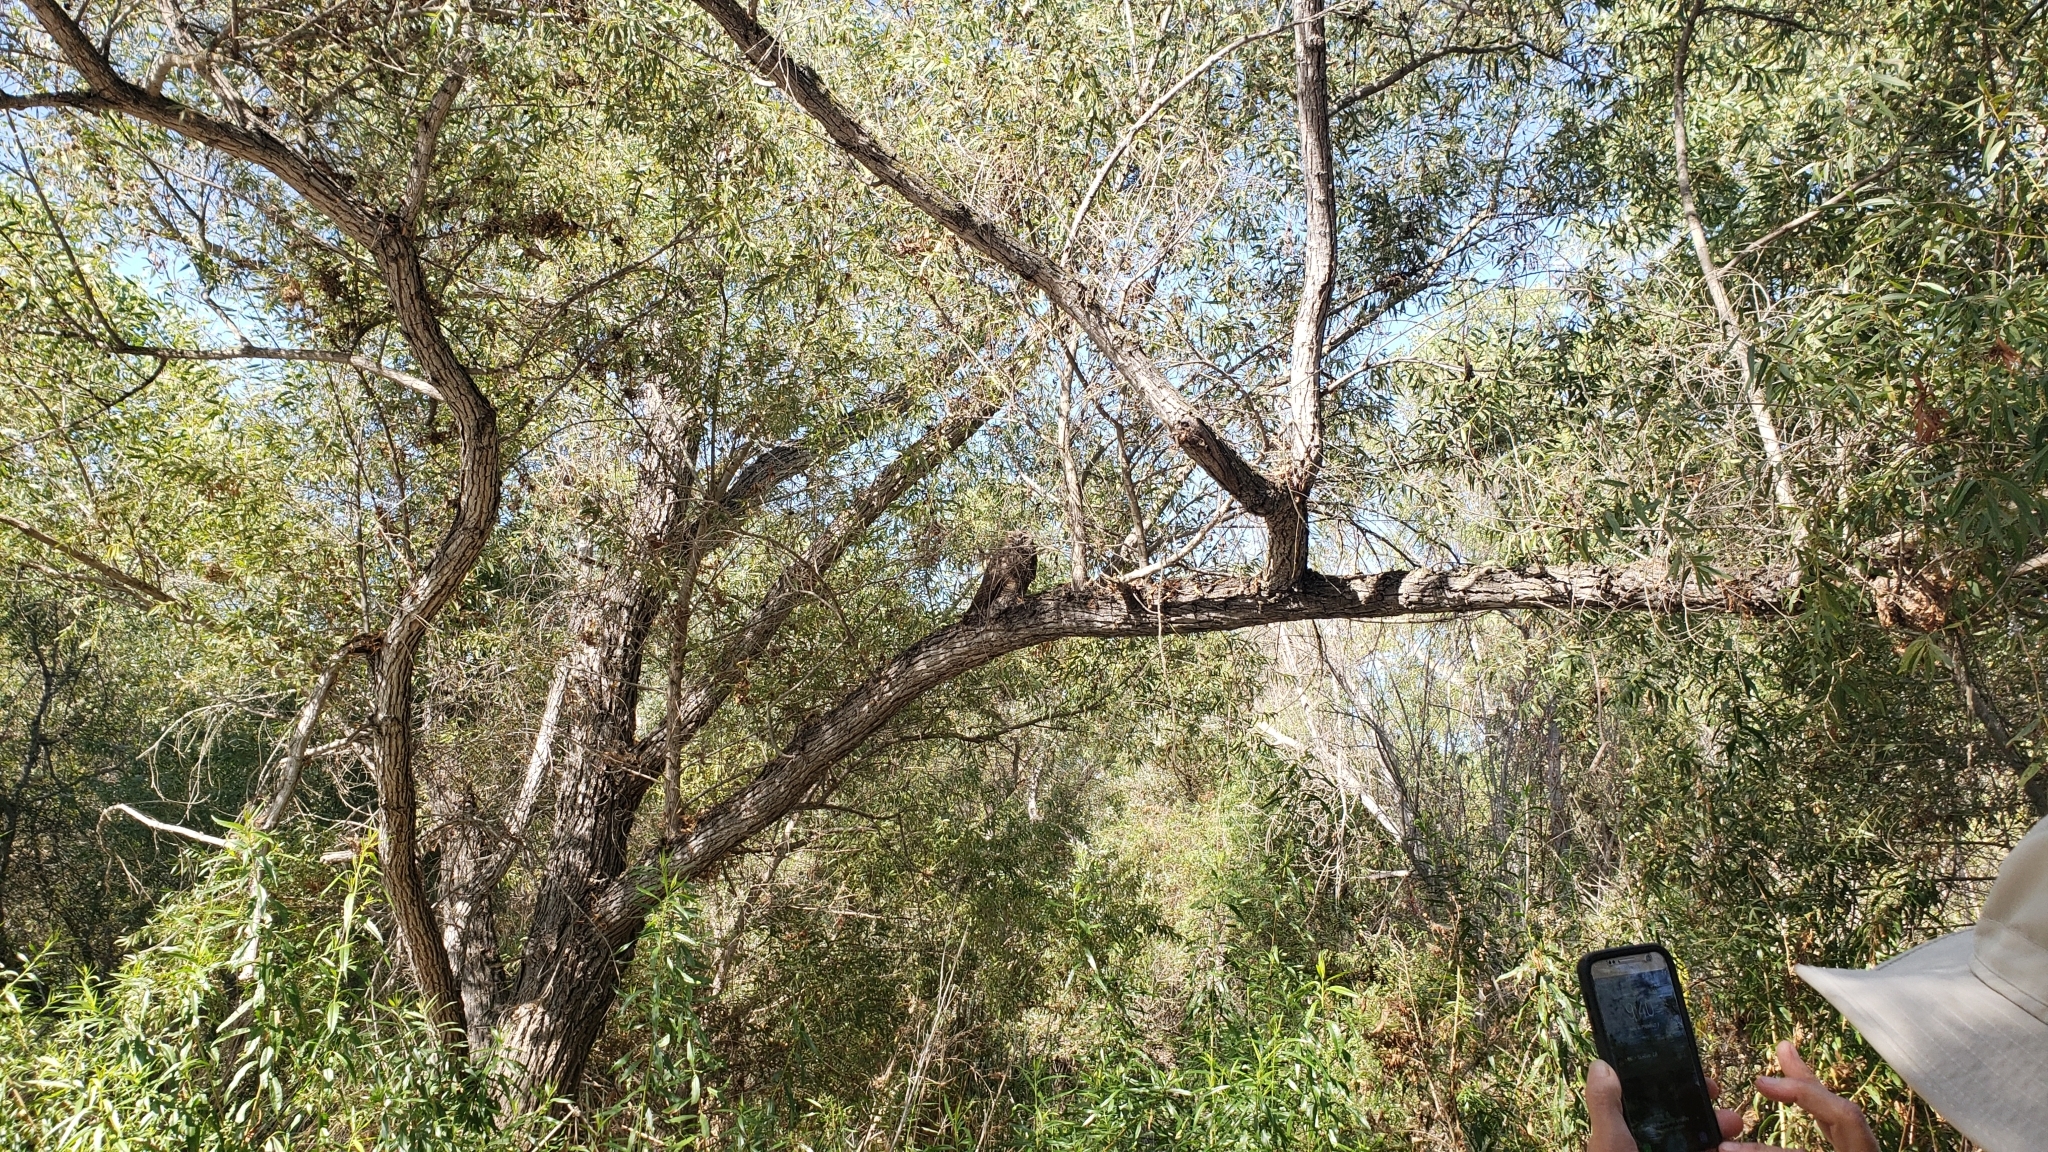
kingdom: Animalia
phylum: Chordata
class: Aves
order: Strigiformes
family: Strigidae
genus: Bubo
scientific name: Bubo virginianus
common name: Great horned owl
